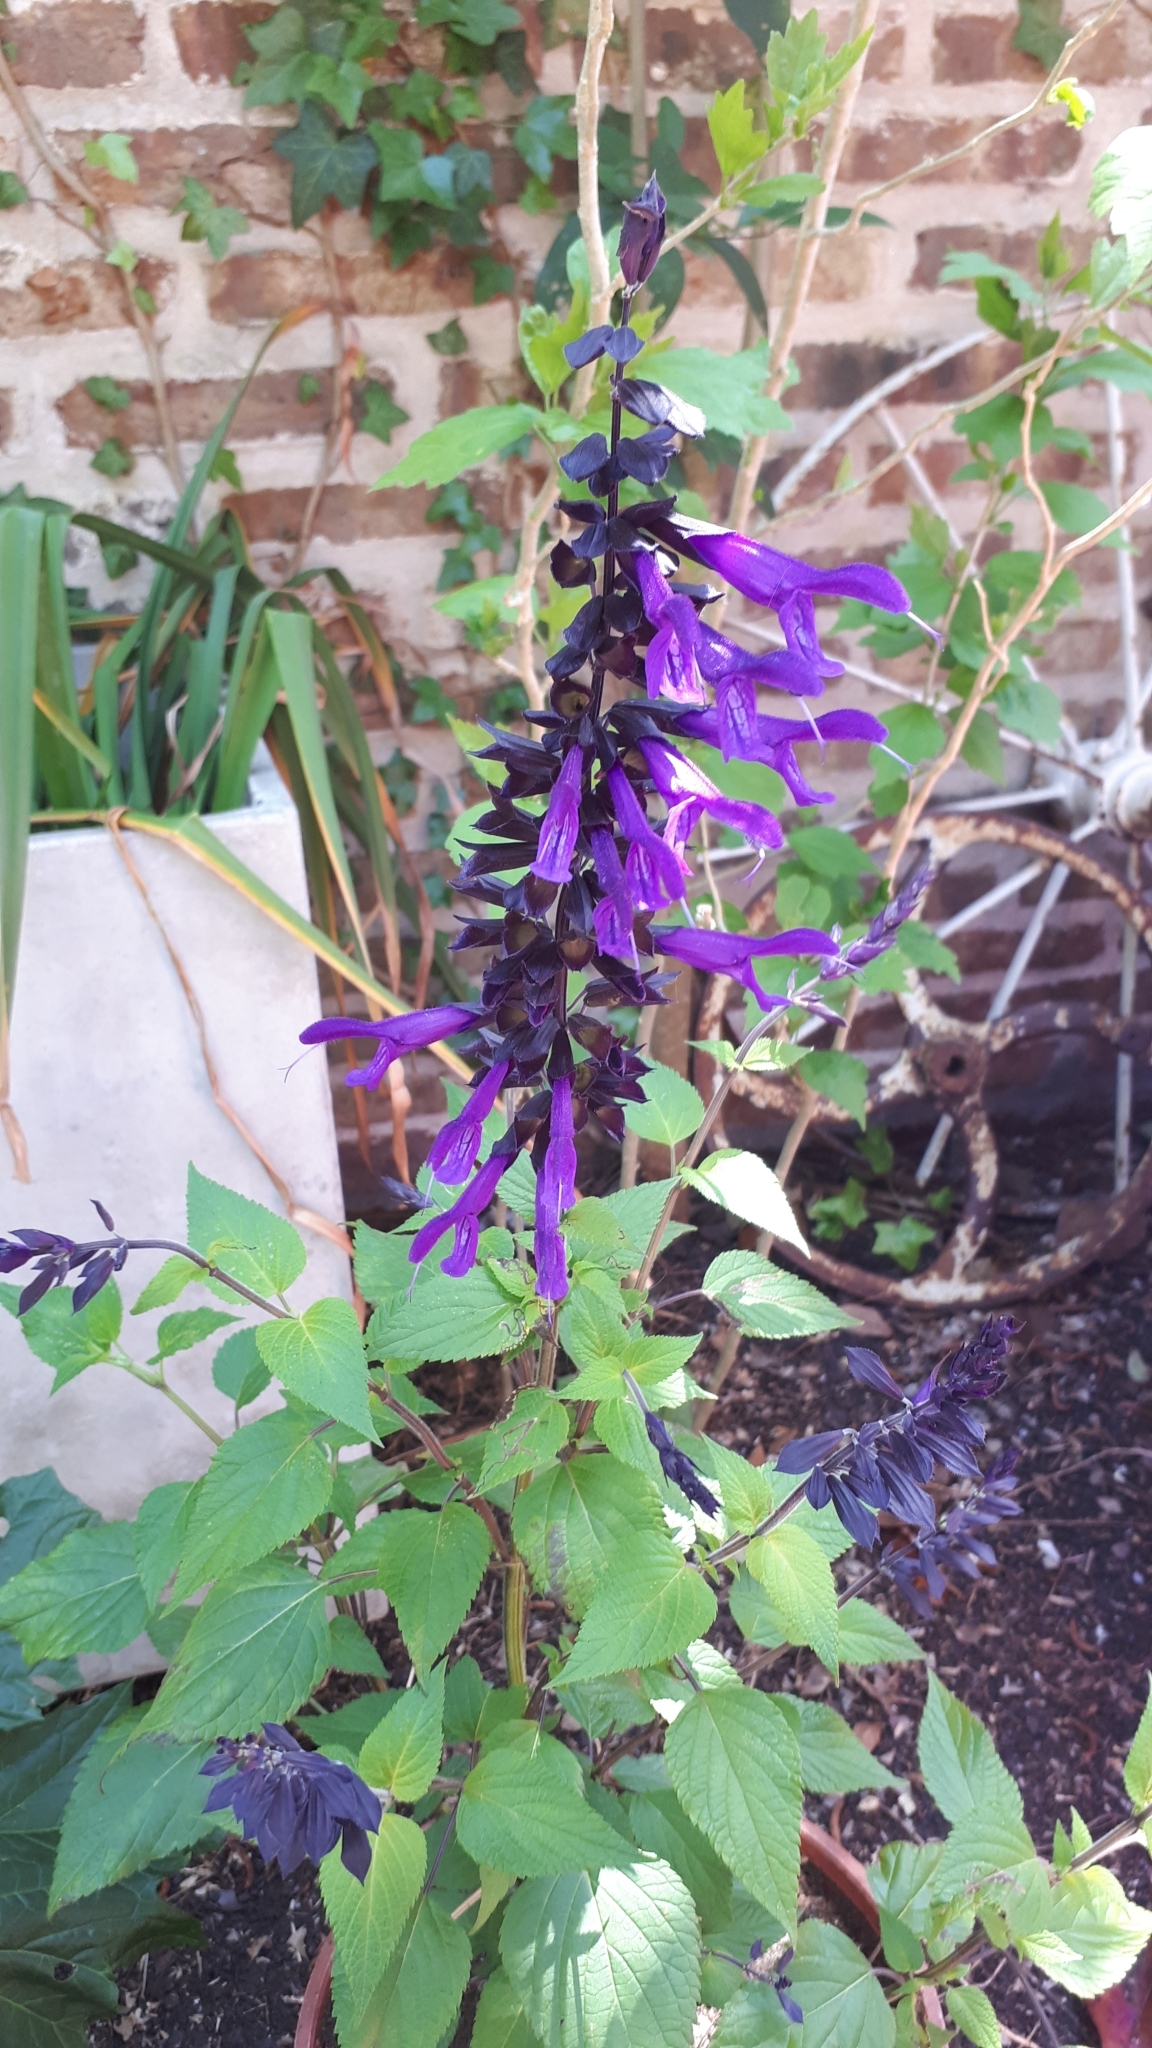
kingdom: Plantae
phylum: Tracheophyta
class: Magnoliopsida
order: Lamiales
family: Lamiaceae
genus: Salvia
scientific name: Salvia guaranitica
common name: Anise-scented sage
